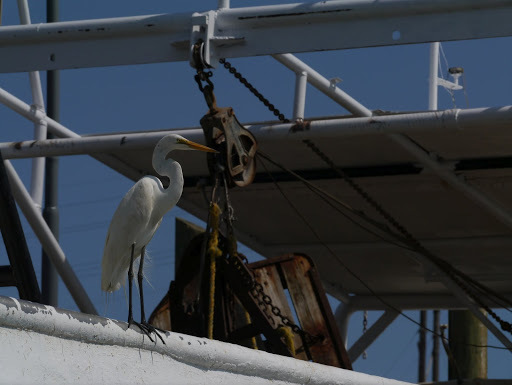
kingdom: Animalia
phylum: Chordata
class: Aves
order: Pelecaniformes
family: Ardeidae
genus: Ardea
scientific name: Ardea alba
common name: Great egret
